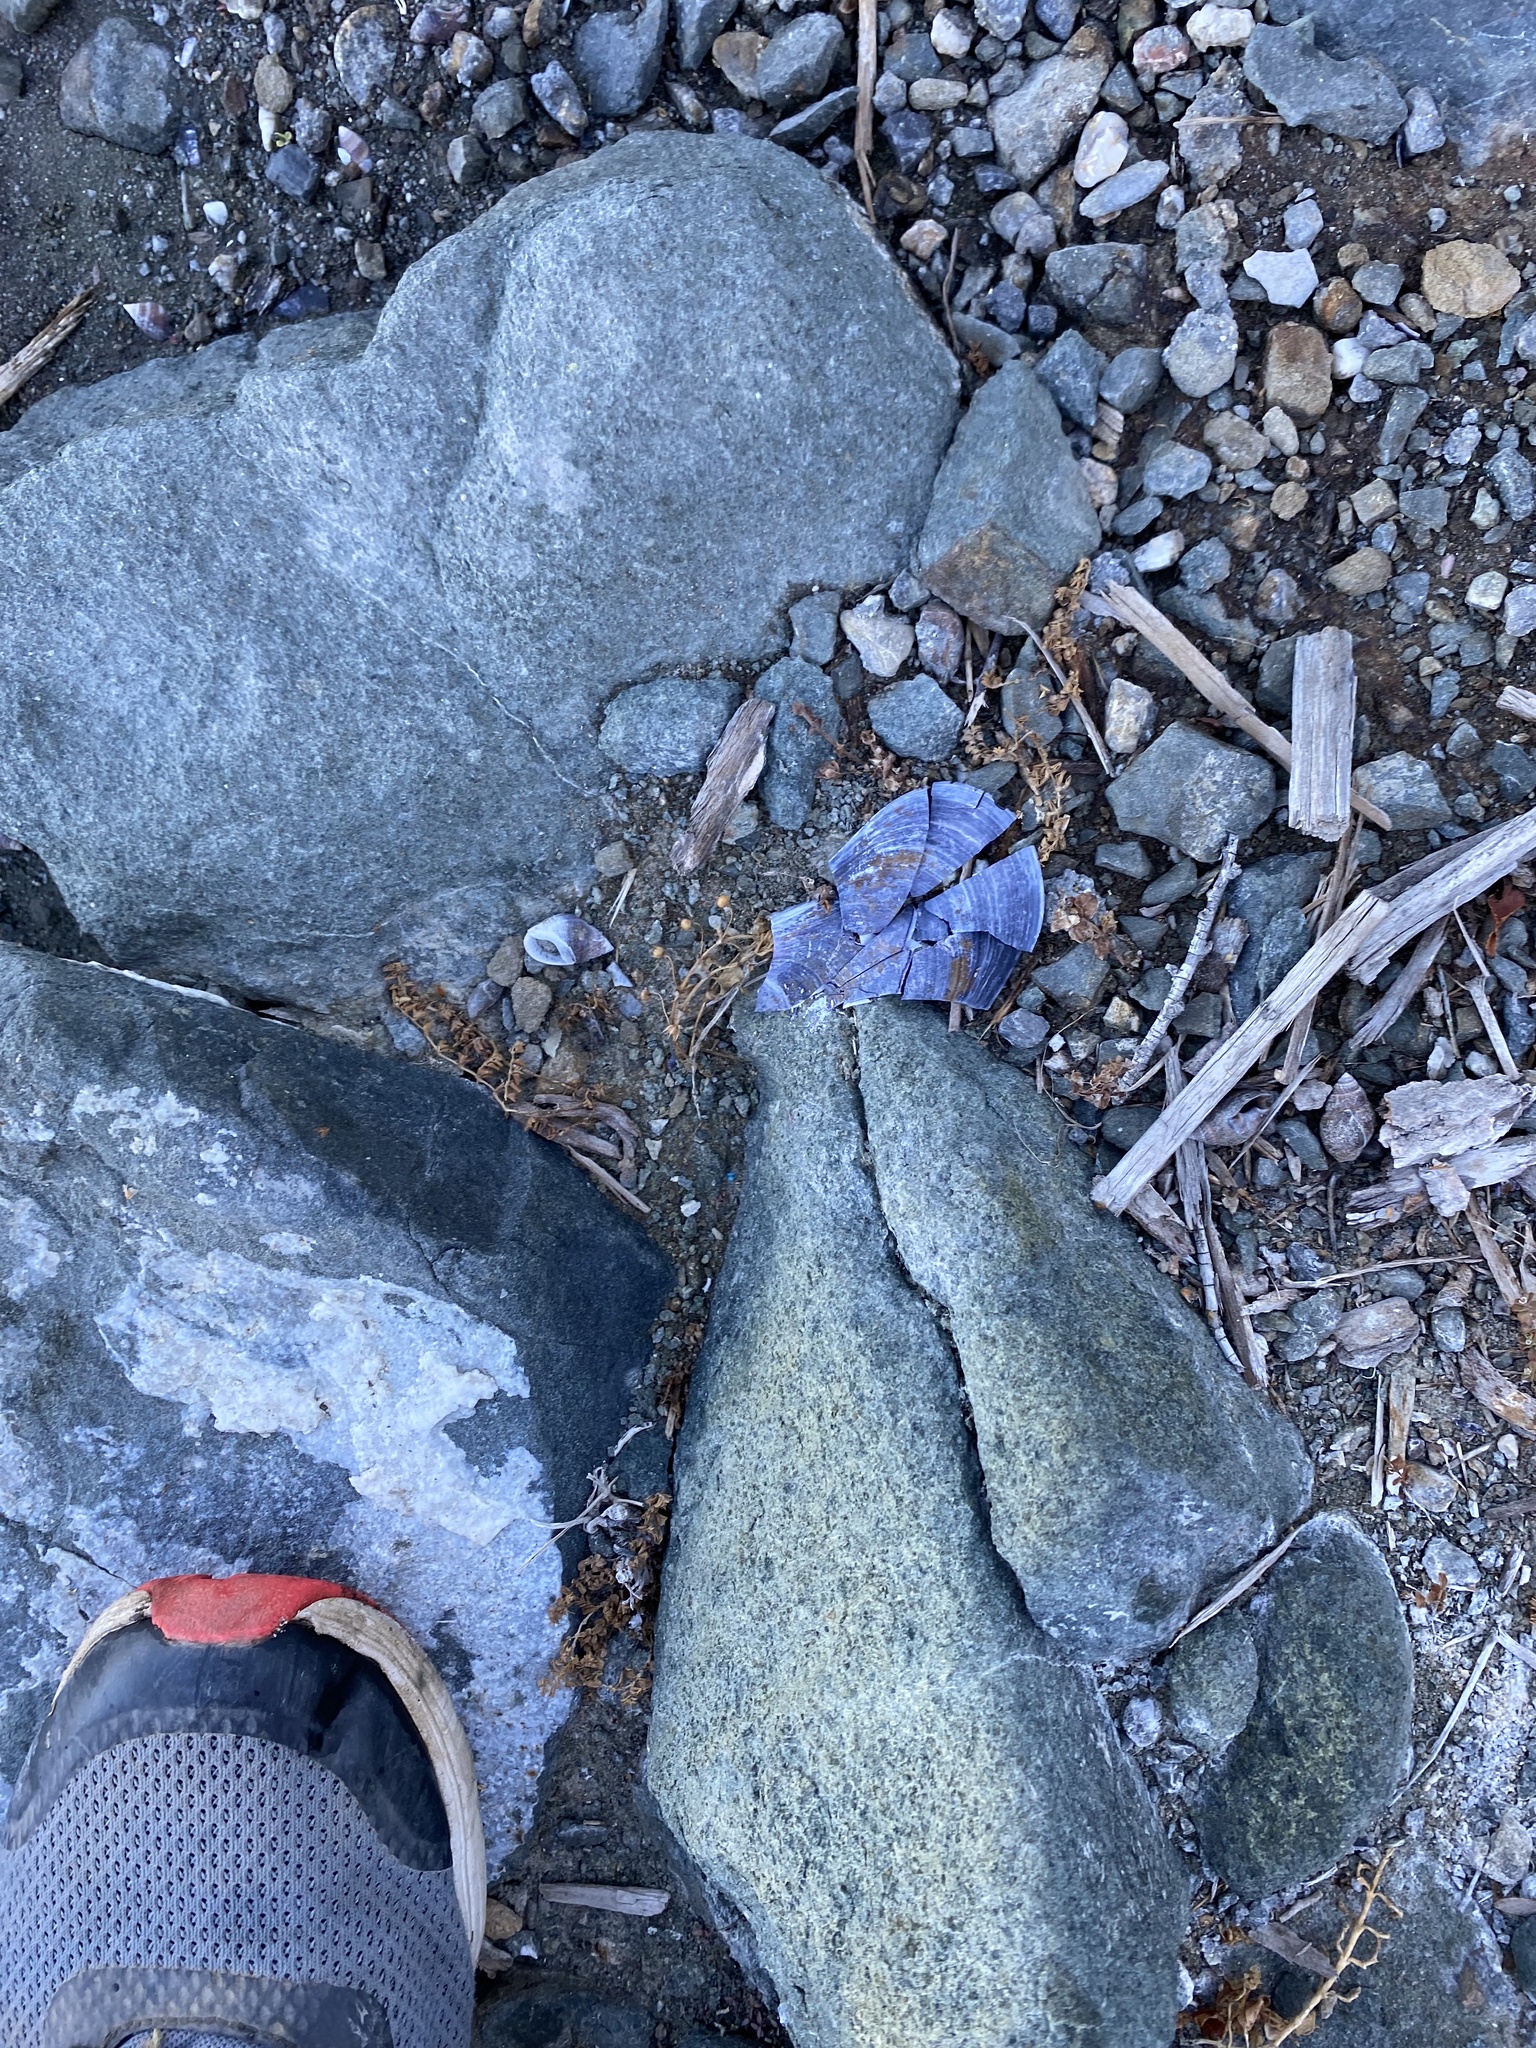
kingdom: Animalia
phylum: Mollusca
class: Bivalvia
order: Mytilida
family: Mytilidae
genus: Mytilus
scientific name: Mytilus
